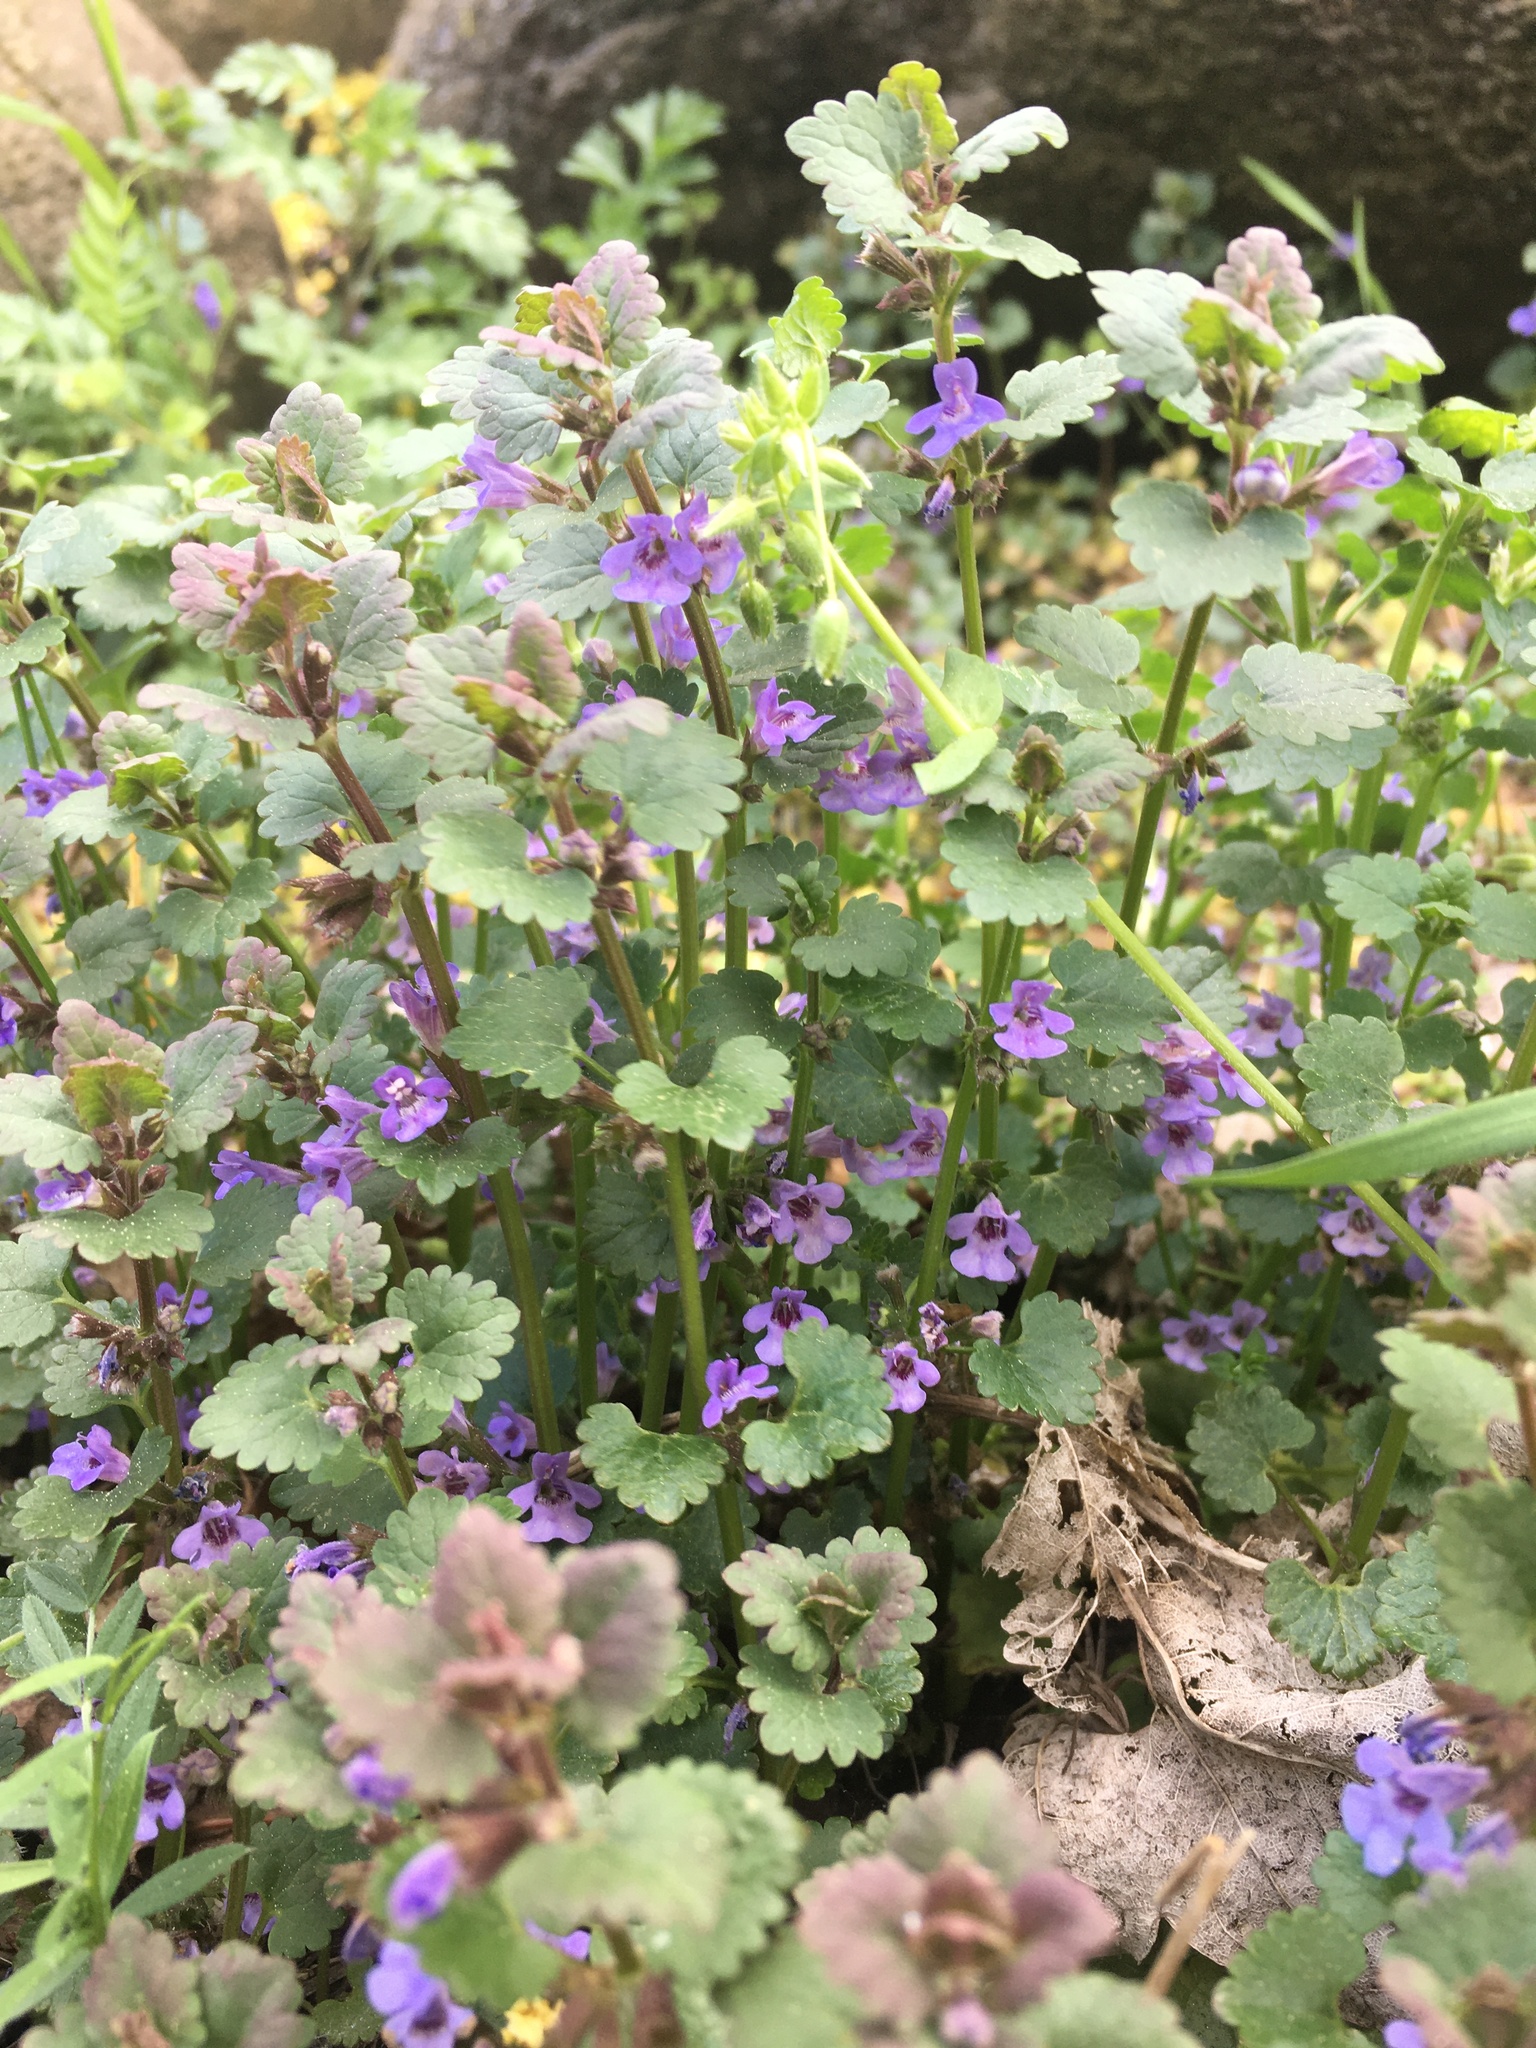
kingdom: Plantae
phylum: Tracheophyta
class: Magnoliopsida
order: Lamiales
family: Lamiaceae
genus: Glechoma
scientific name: Glechoma hederacea
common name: Ground ivy
